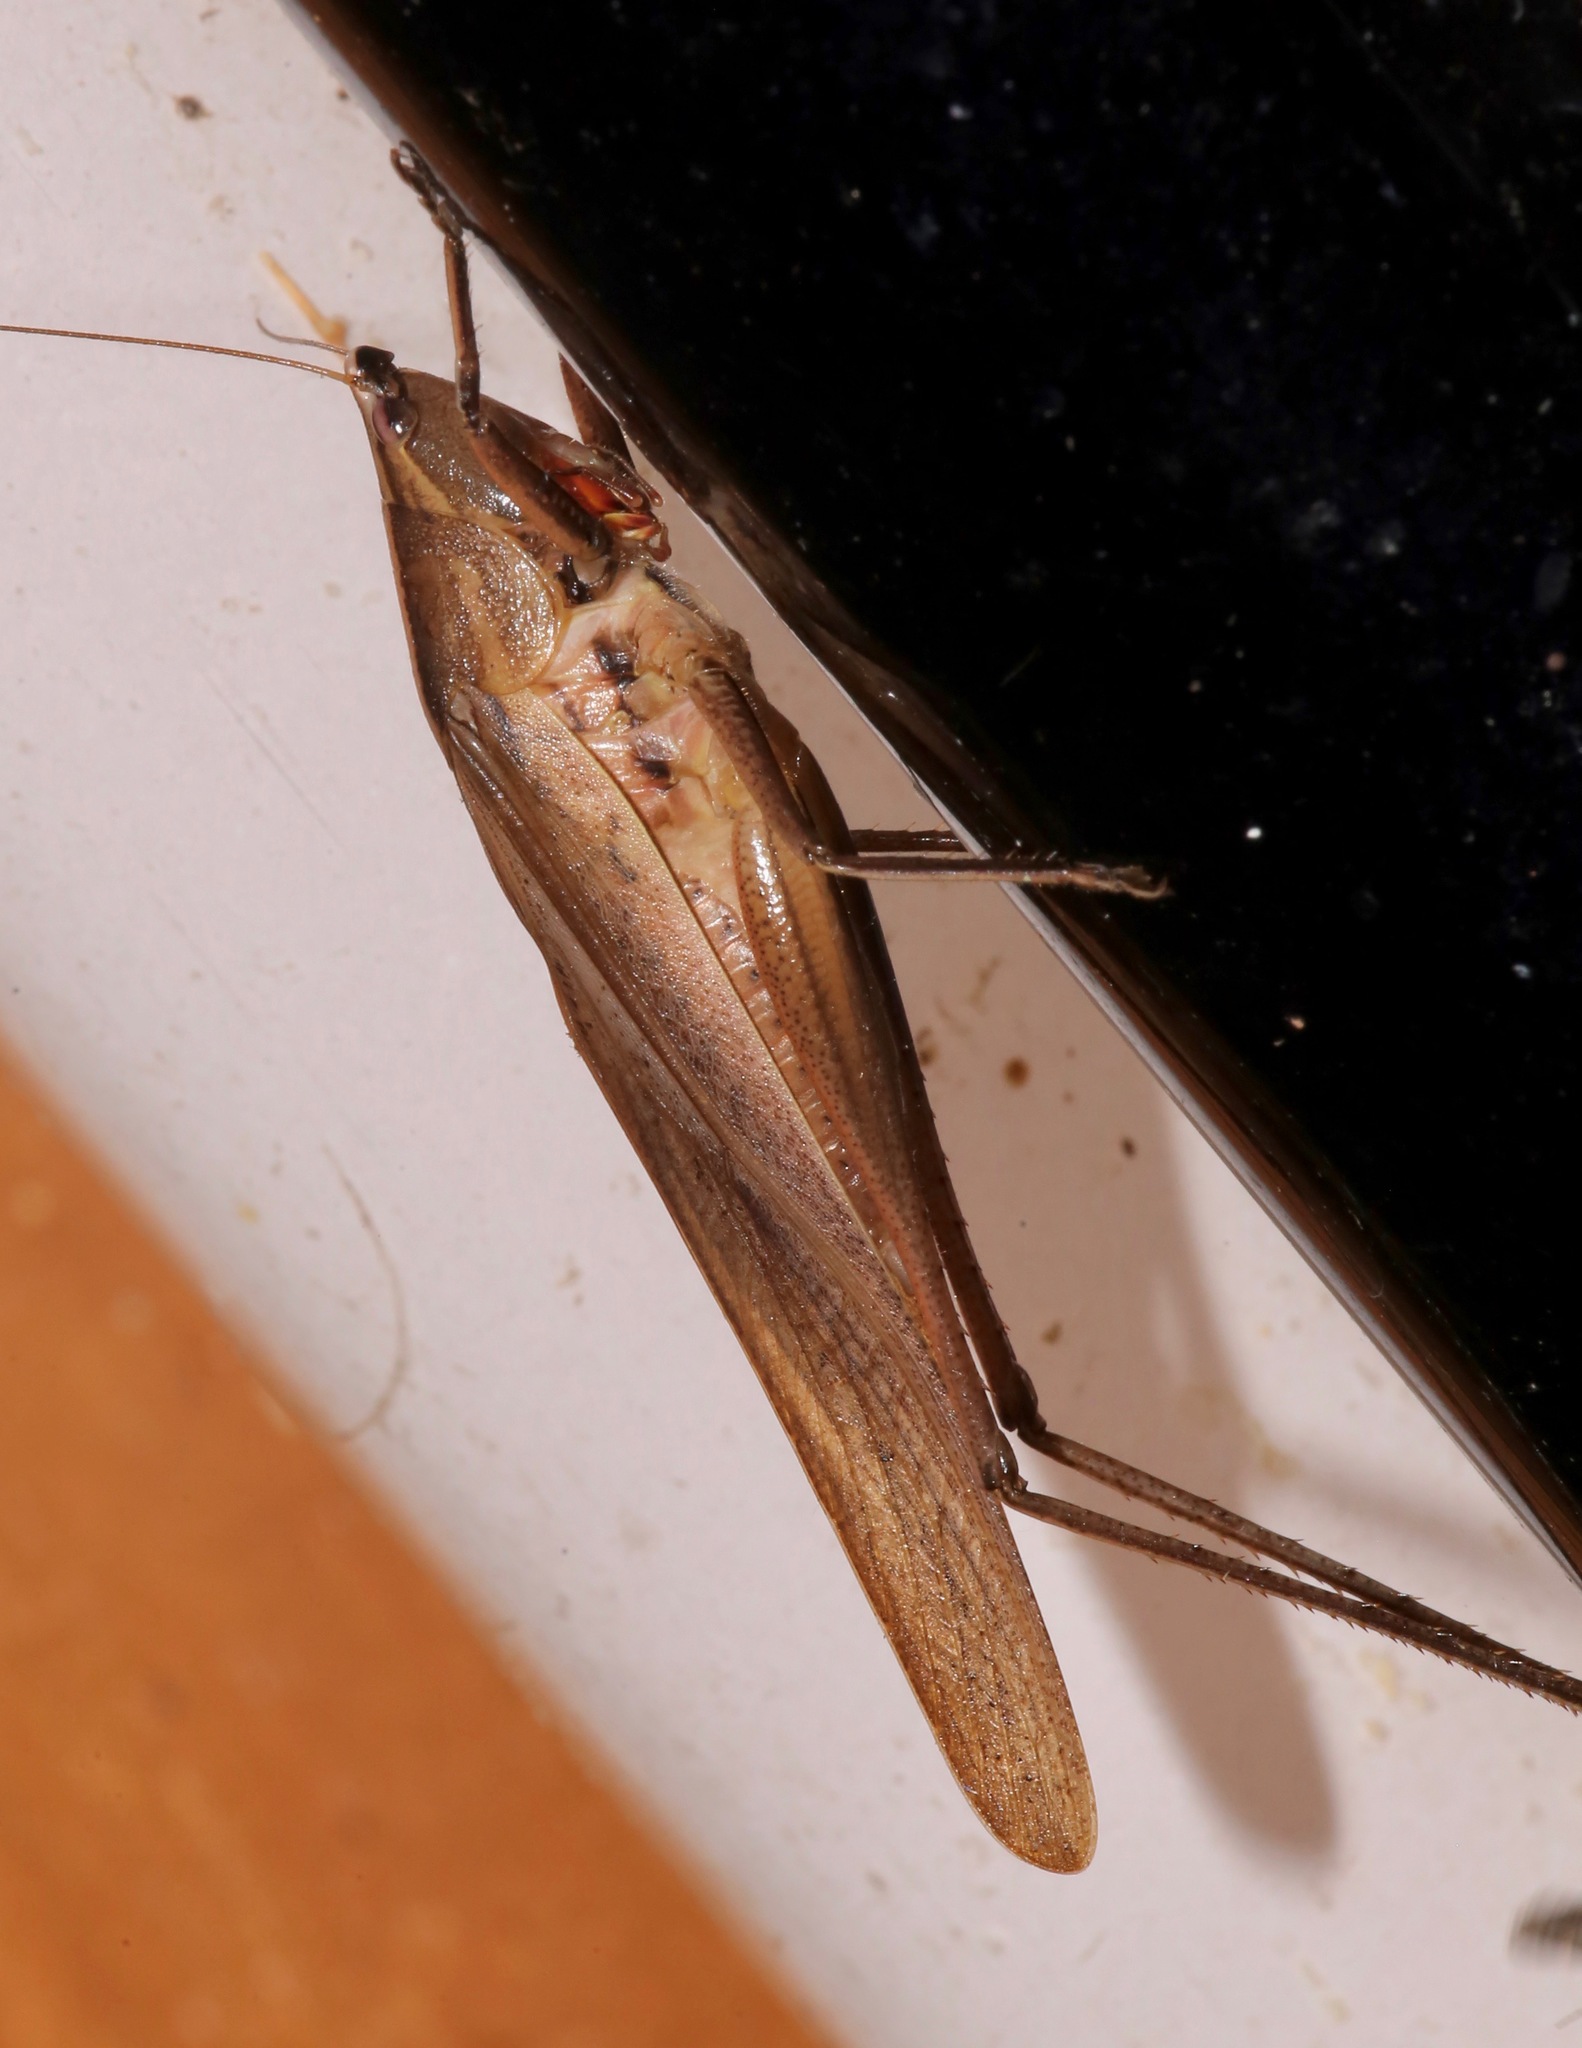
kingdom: Animalia
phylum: Arthropoda
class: Insecta
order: Orthoptera
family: Tettigoniidae
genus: Neoconocephalus
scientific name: Neoconocephalus triops
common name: Broad-tipped conehead
